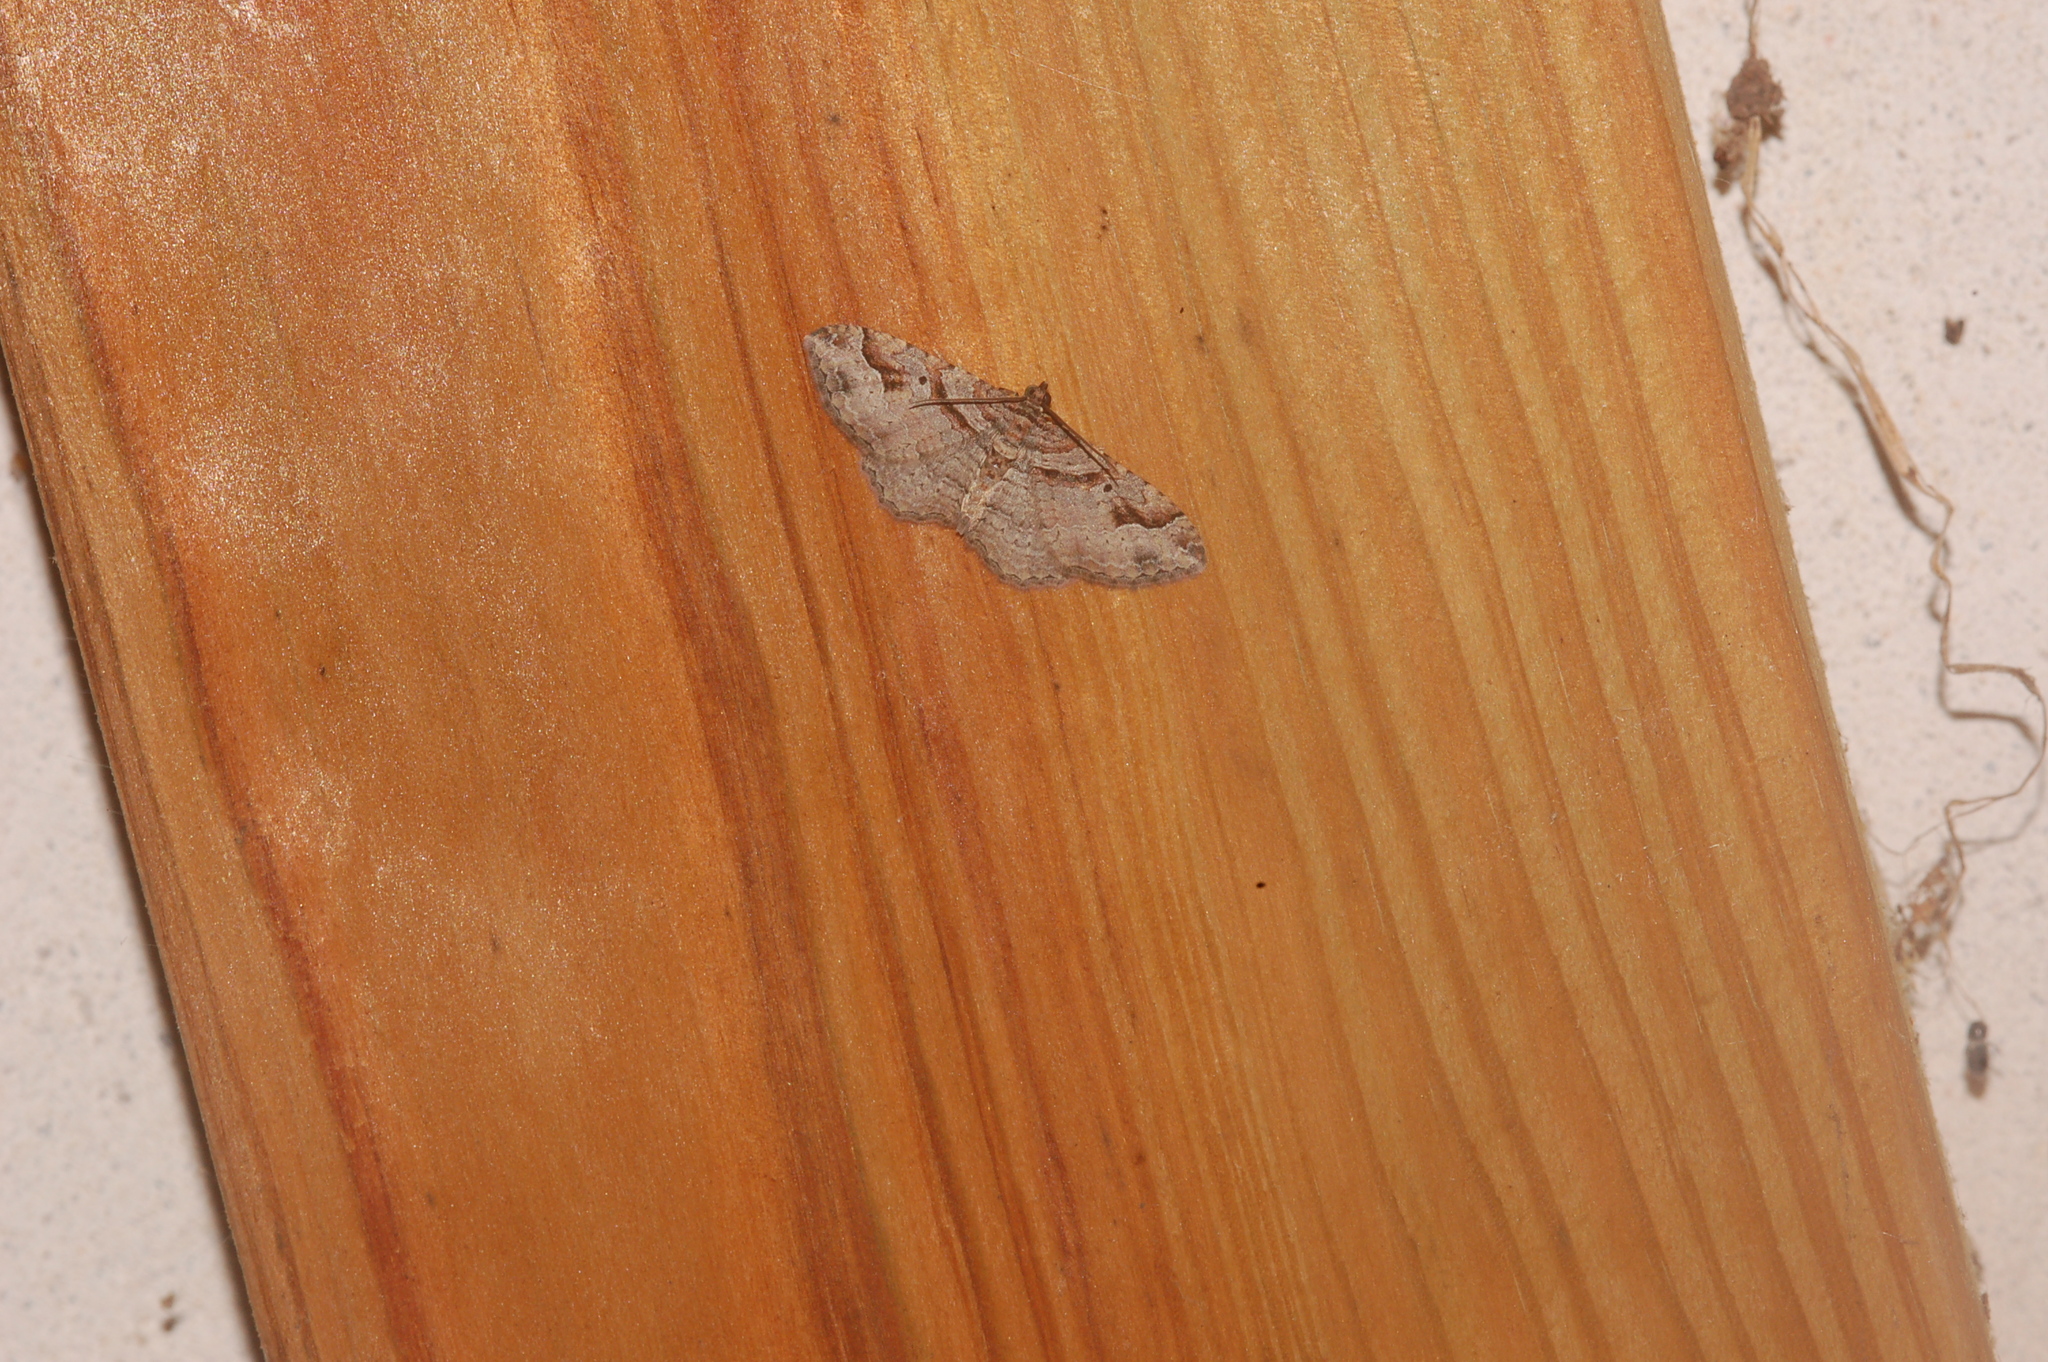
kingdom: Animalia
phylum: Arthropoda
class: Insecta
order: Lepidoptera
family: Geometridae
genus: Costaconvexa
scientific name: Costaconvexa centrostrigaria
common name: Bent-line carpet
